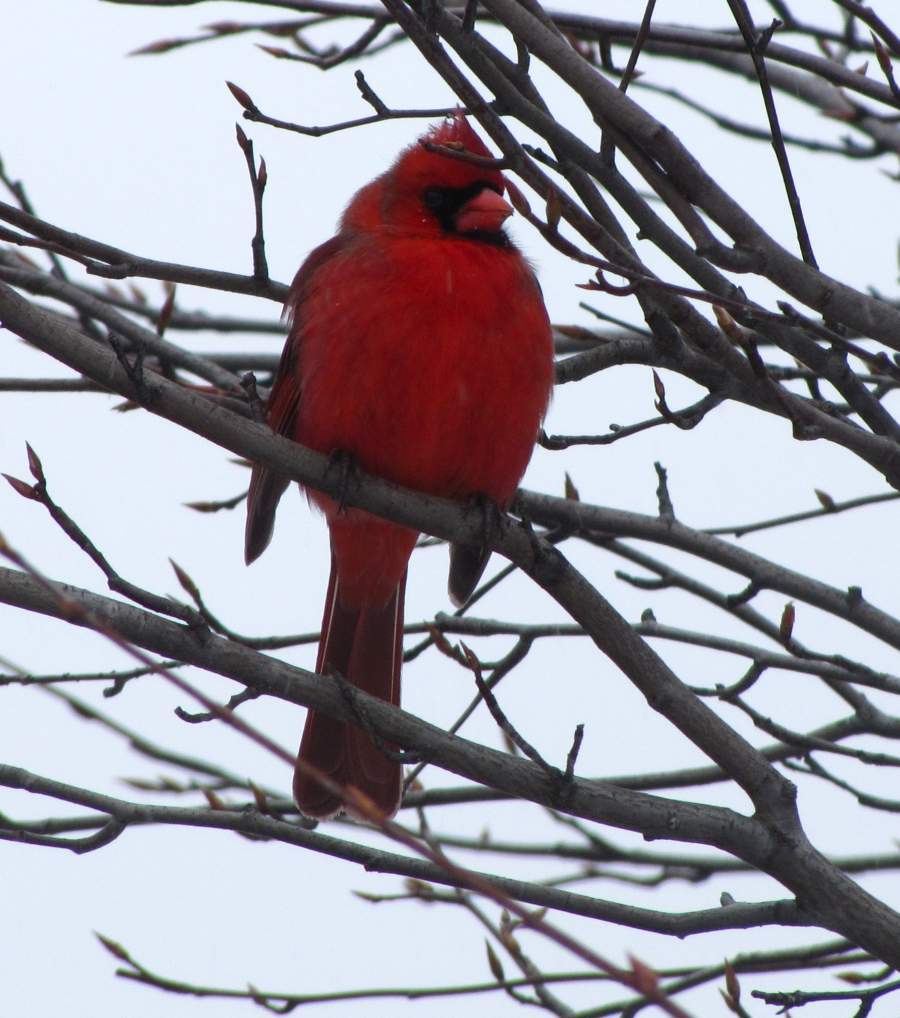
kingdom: Animalia
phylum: Chordata
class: Aves
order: Passeriformes
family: Cardinalidae
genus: Cardinalis
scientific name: Cardinalis cardinalis
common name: Northern cardinal
